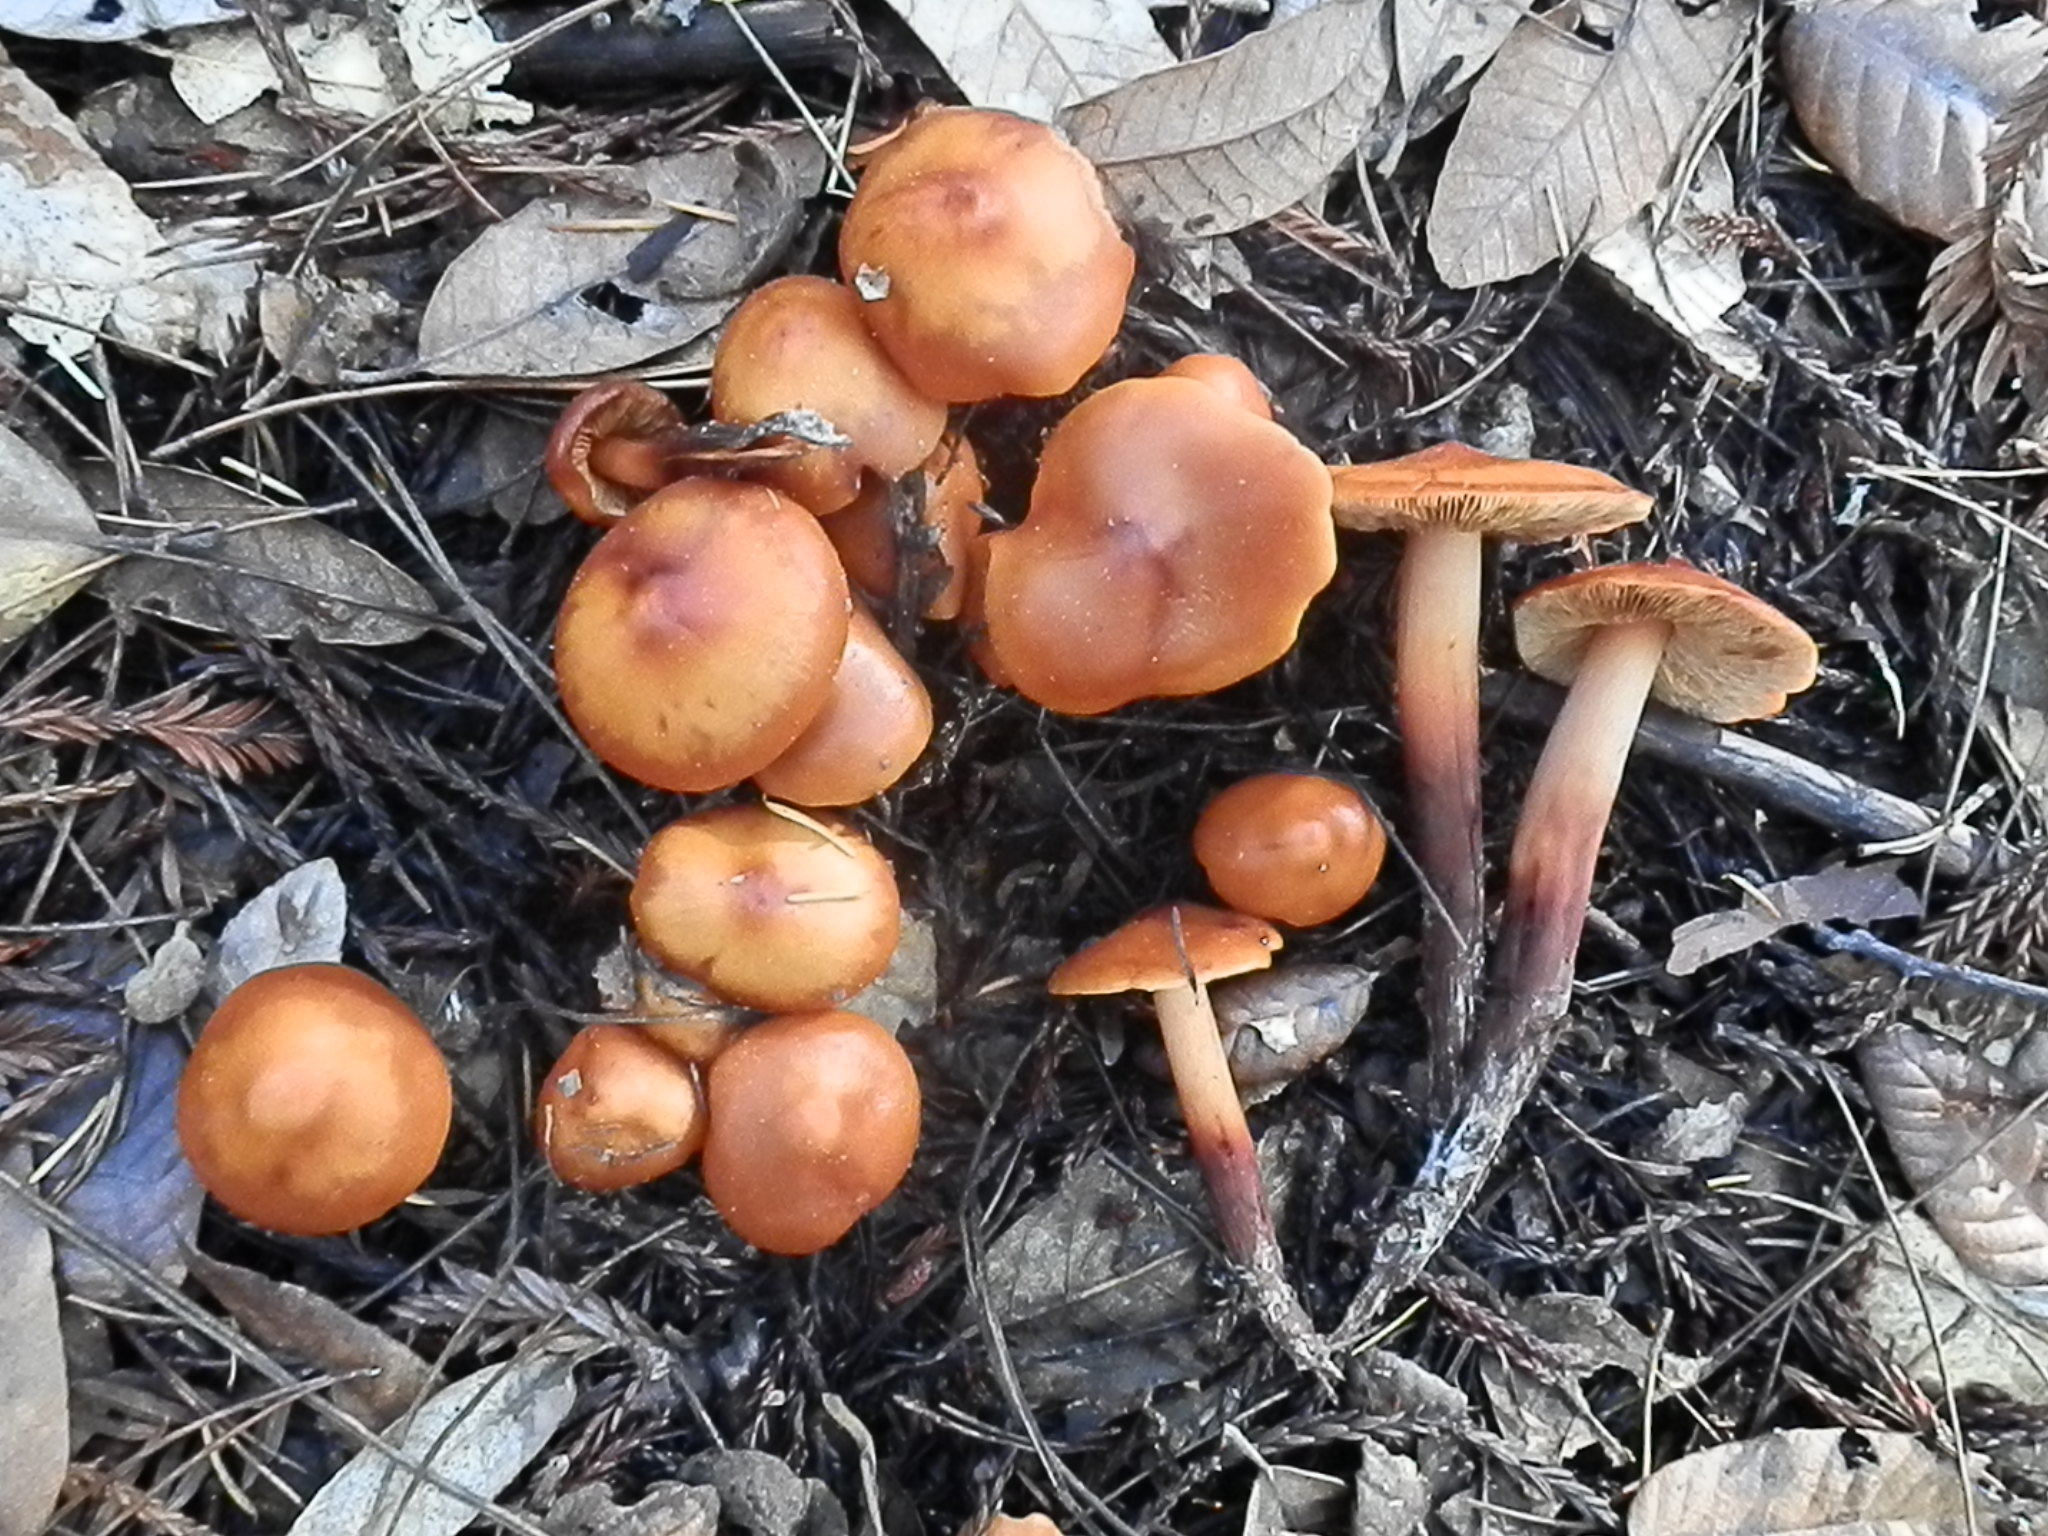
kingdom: Fungi
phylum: Basidiomycota
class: Agaricomycetes
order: Agaricales
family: Hymenogastraceae
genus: Phaeocollybia
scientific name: Phaeocollybia californica
